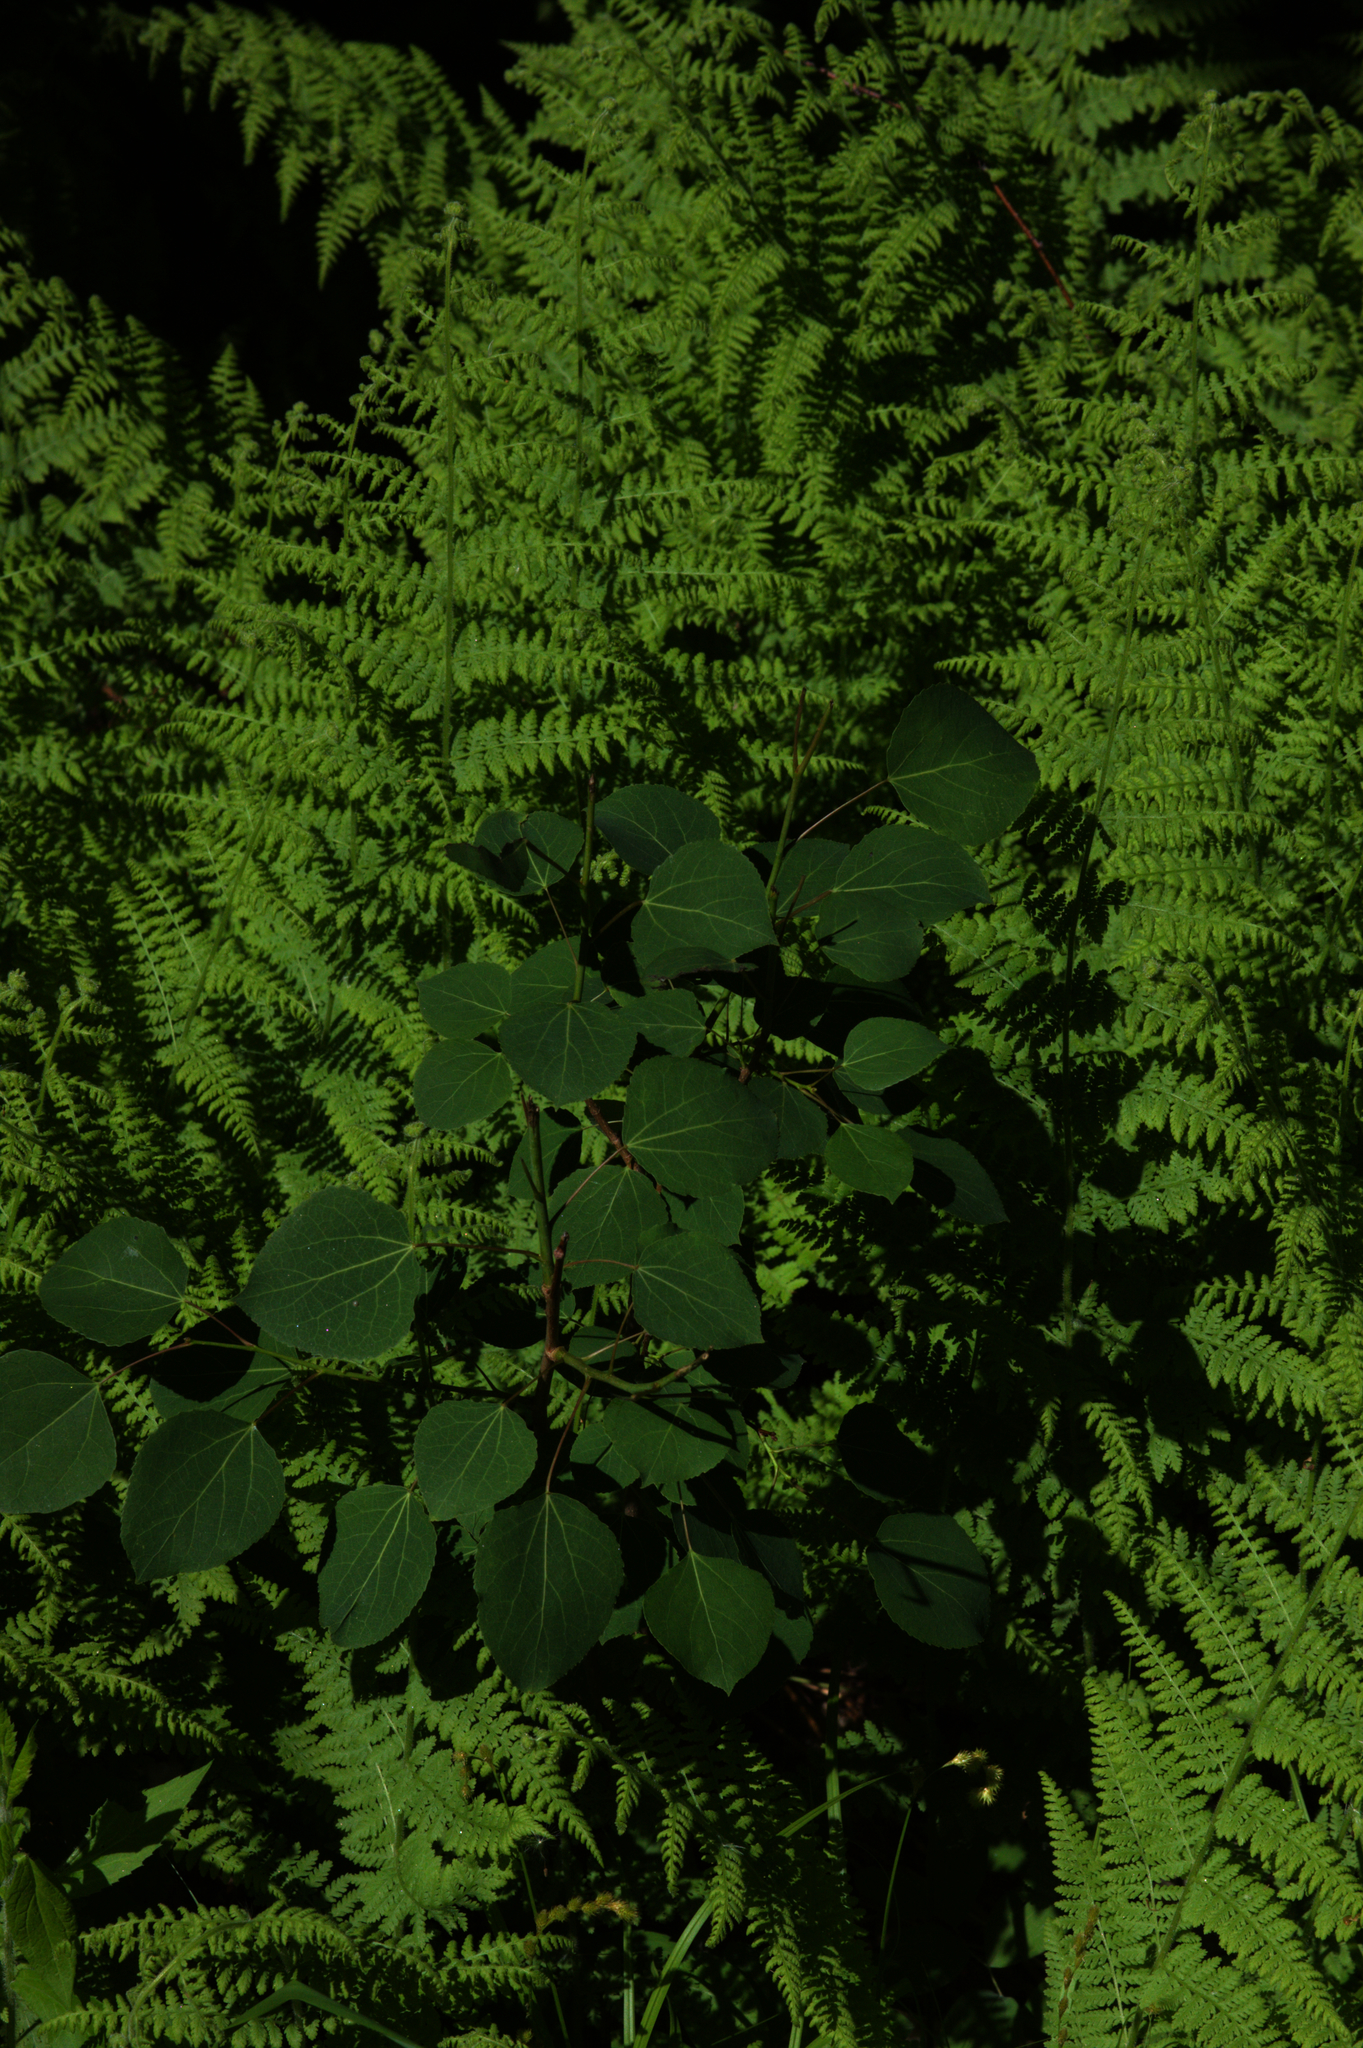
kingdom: Plantae
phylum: Tracheophyta
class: Magnoliopsida
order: Malpighiales
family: Salicaceae
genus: Populus
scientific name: Populus tremuloides
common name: Quaking aspen
